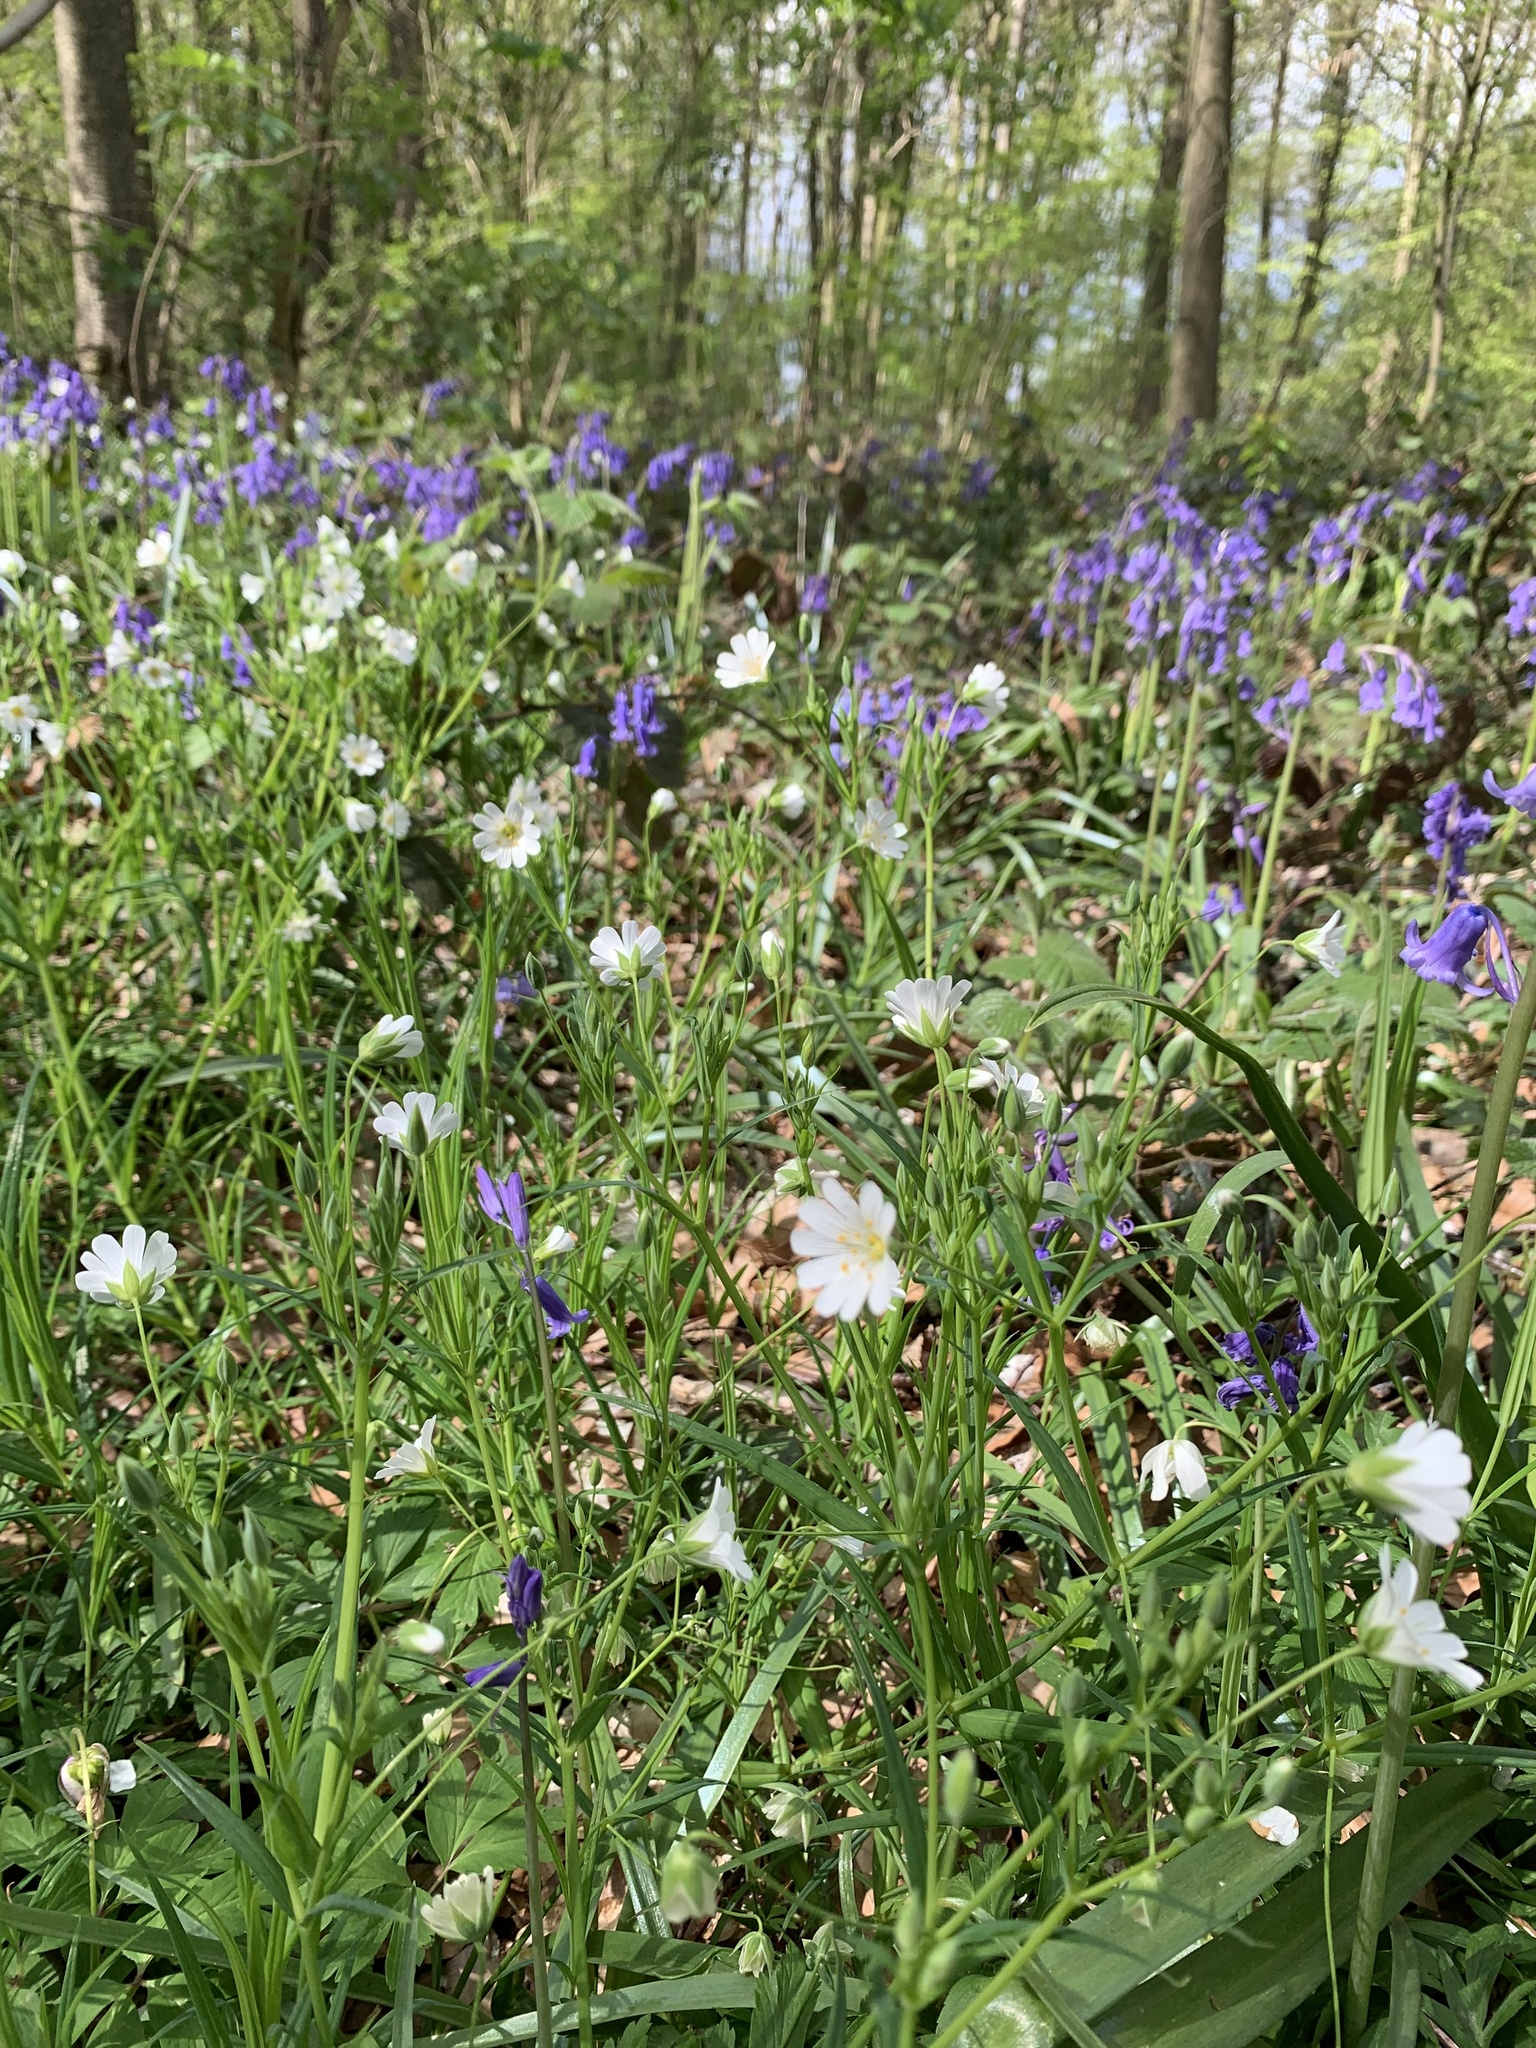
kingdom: Plantae
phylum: Tracheophyta
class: Magnoliopsida
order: Caryophyllales
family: Caryophyllaceae
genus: Rabelera
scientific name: Rabelera holostea
